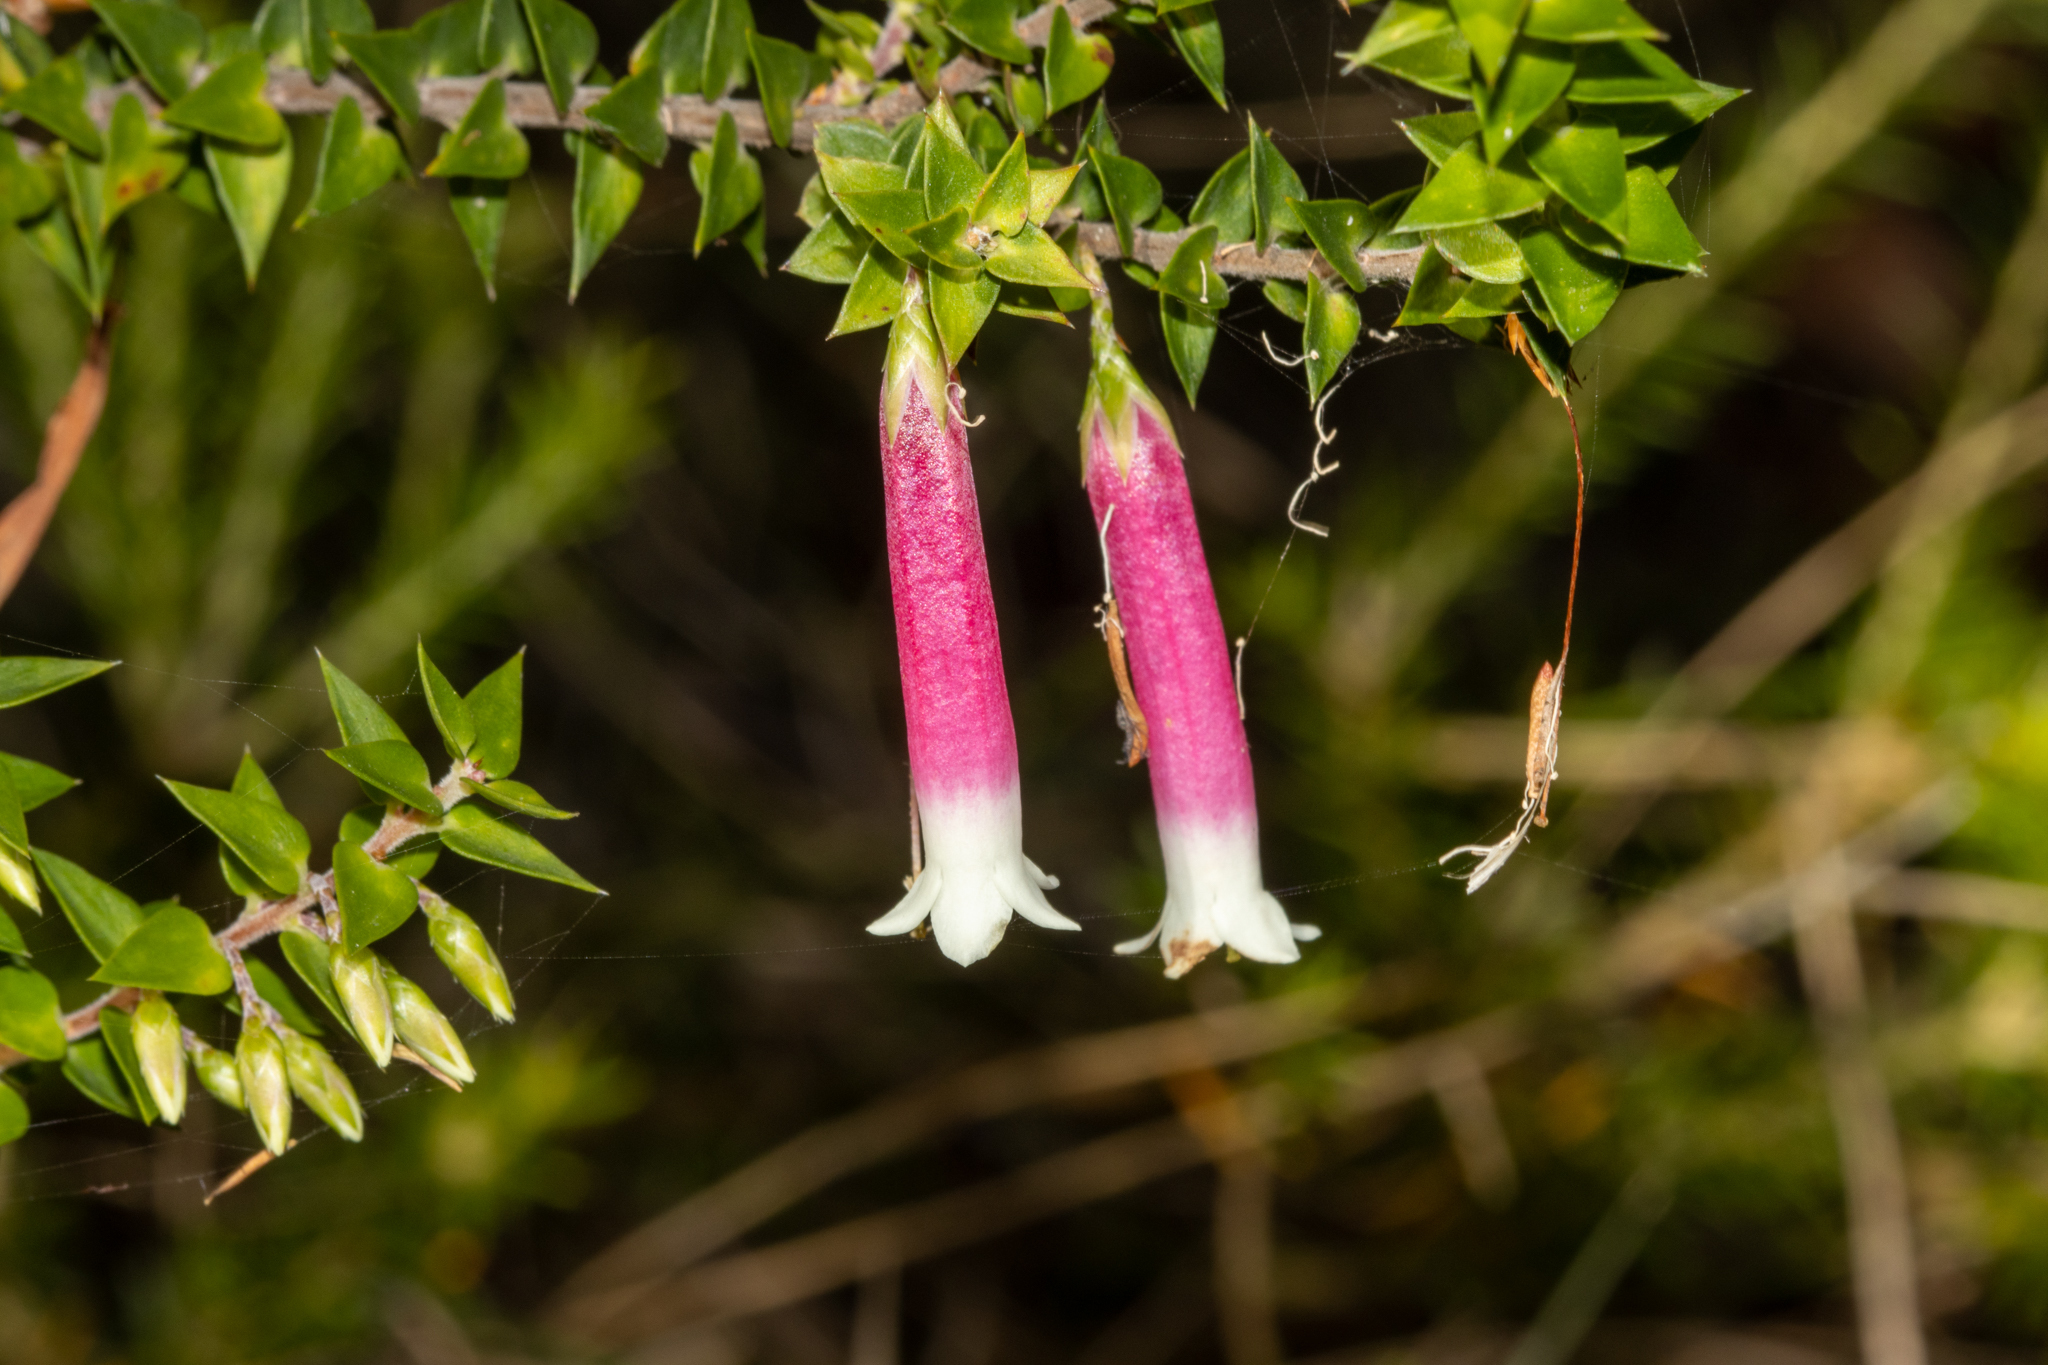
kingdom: Plantae
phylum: Tracheophyta
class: Magnoliopsida
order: Ericales
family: Ericaceae
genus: Epacris
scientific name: Epacris longiflora
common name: Fuchsia-heath
